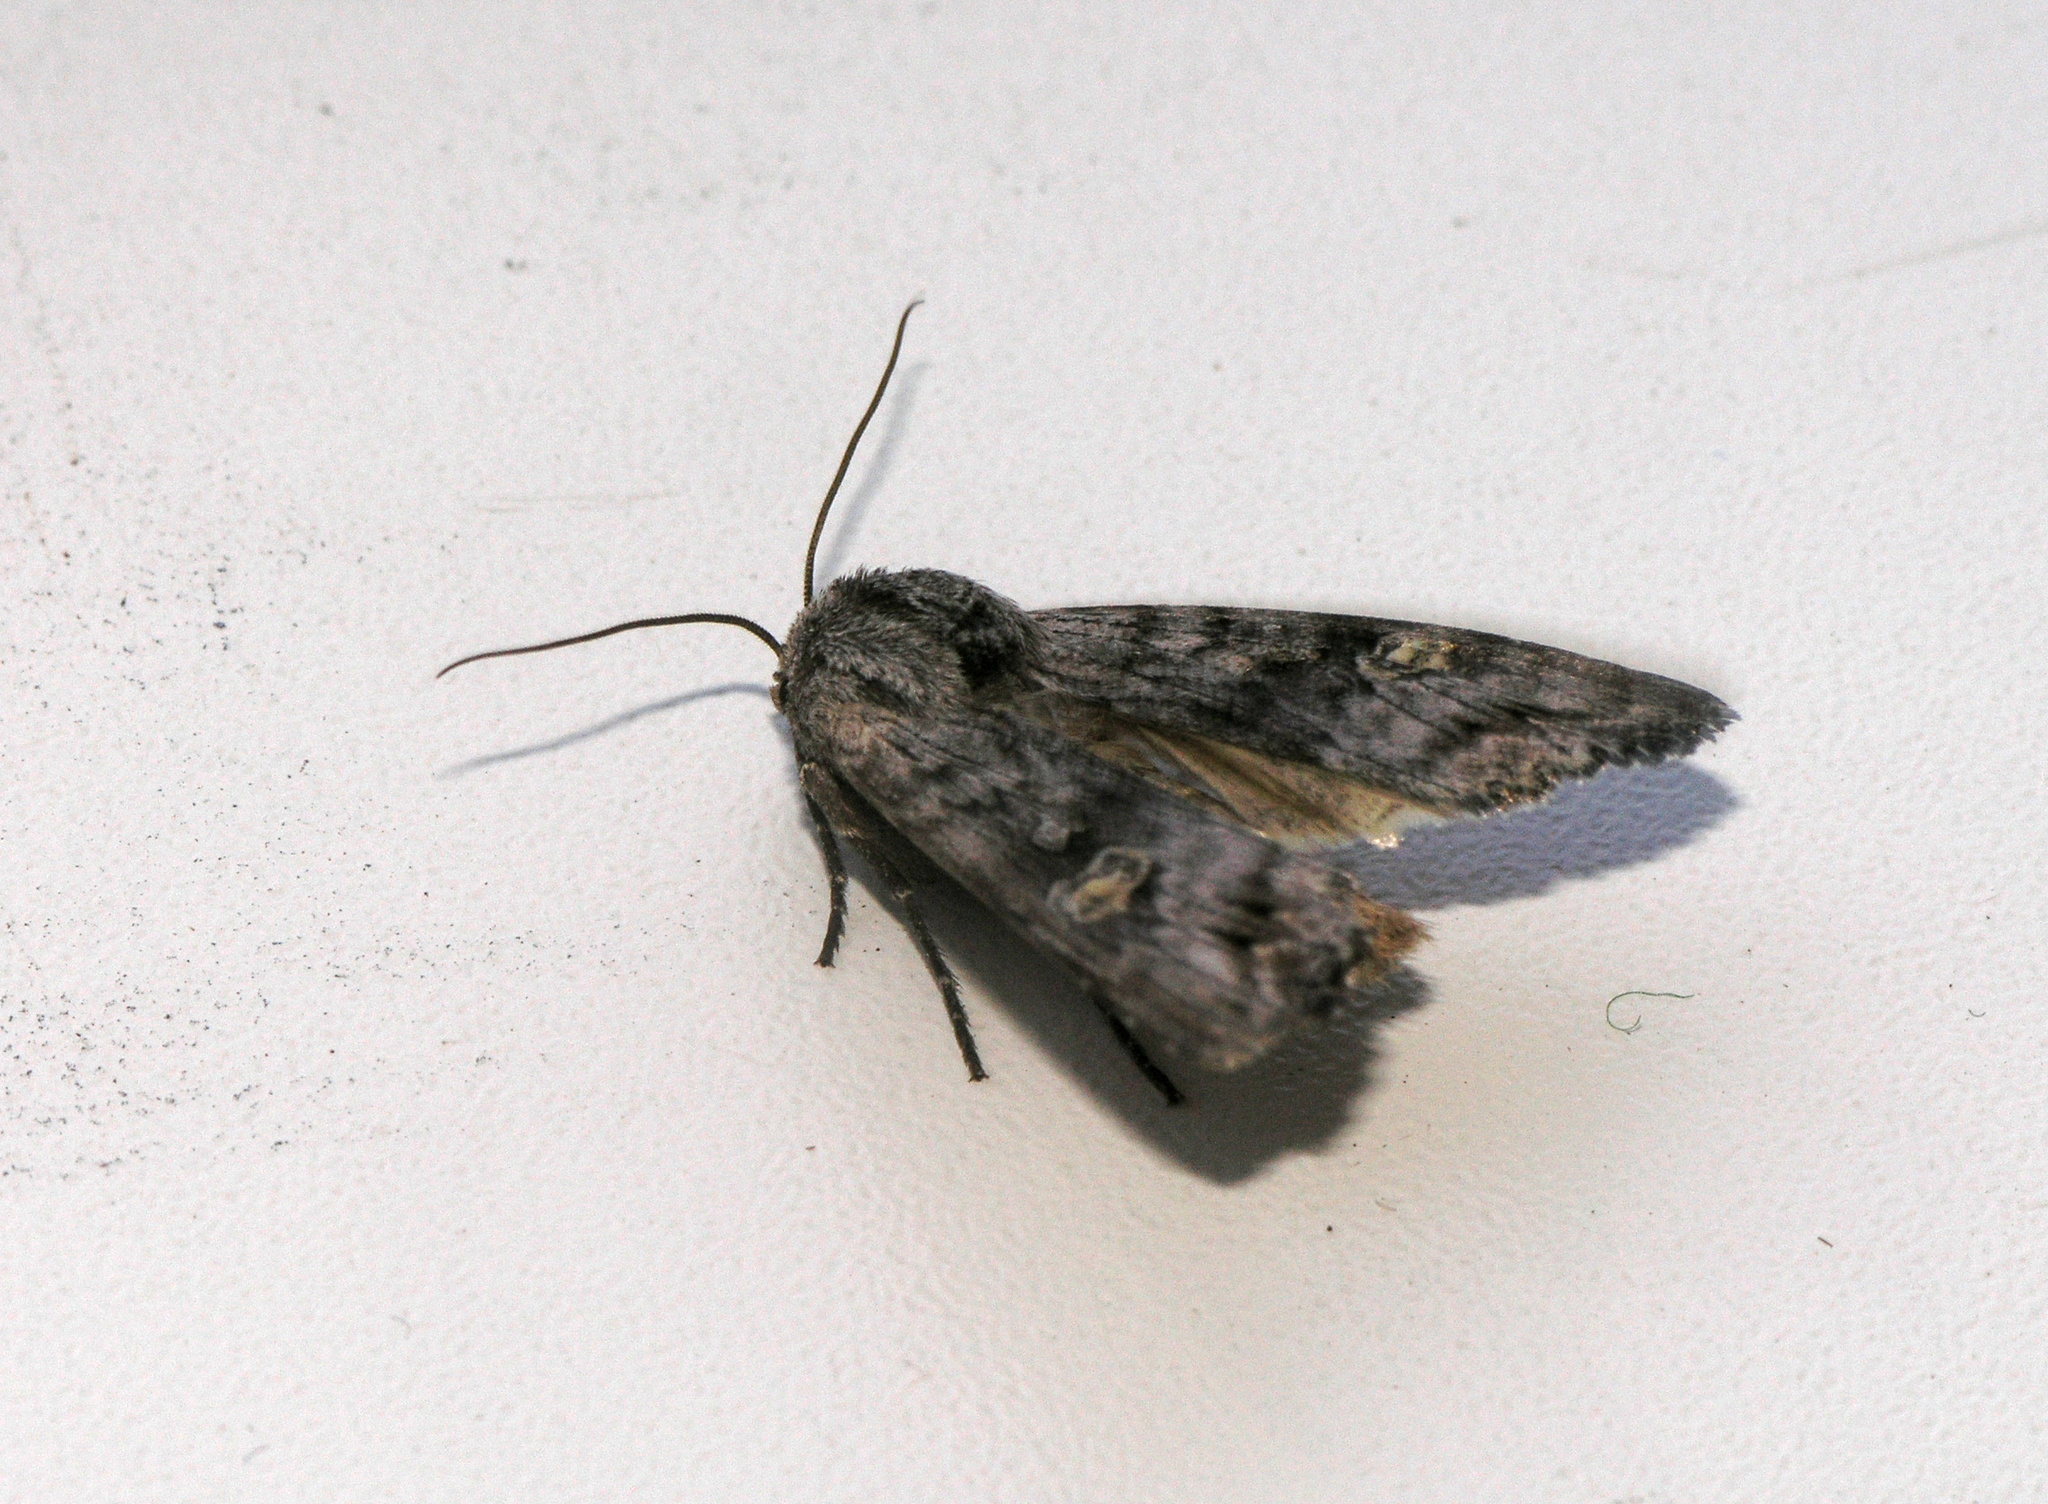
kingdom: Animalia
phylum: Arthropoda
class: Insecta
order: Lepidoptera
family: Noctuidae
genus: Xylena
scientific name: Xylena solidaginis
